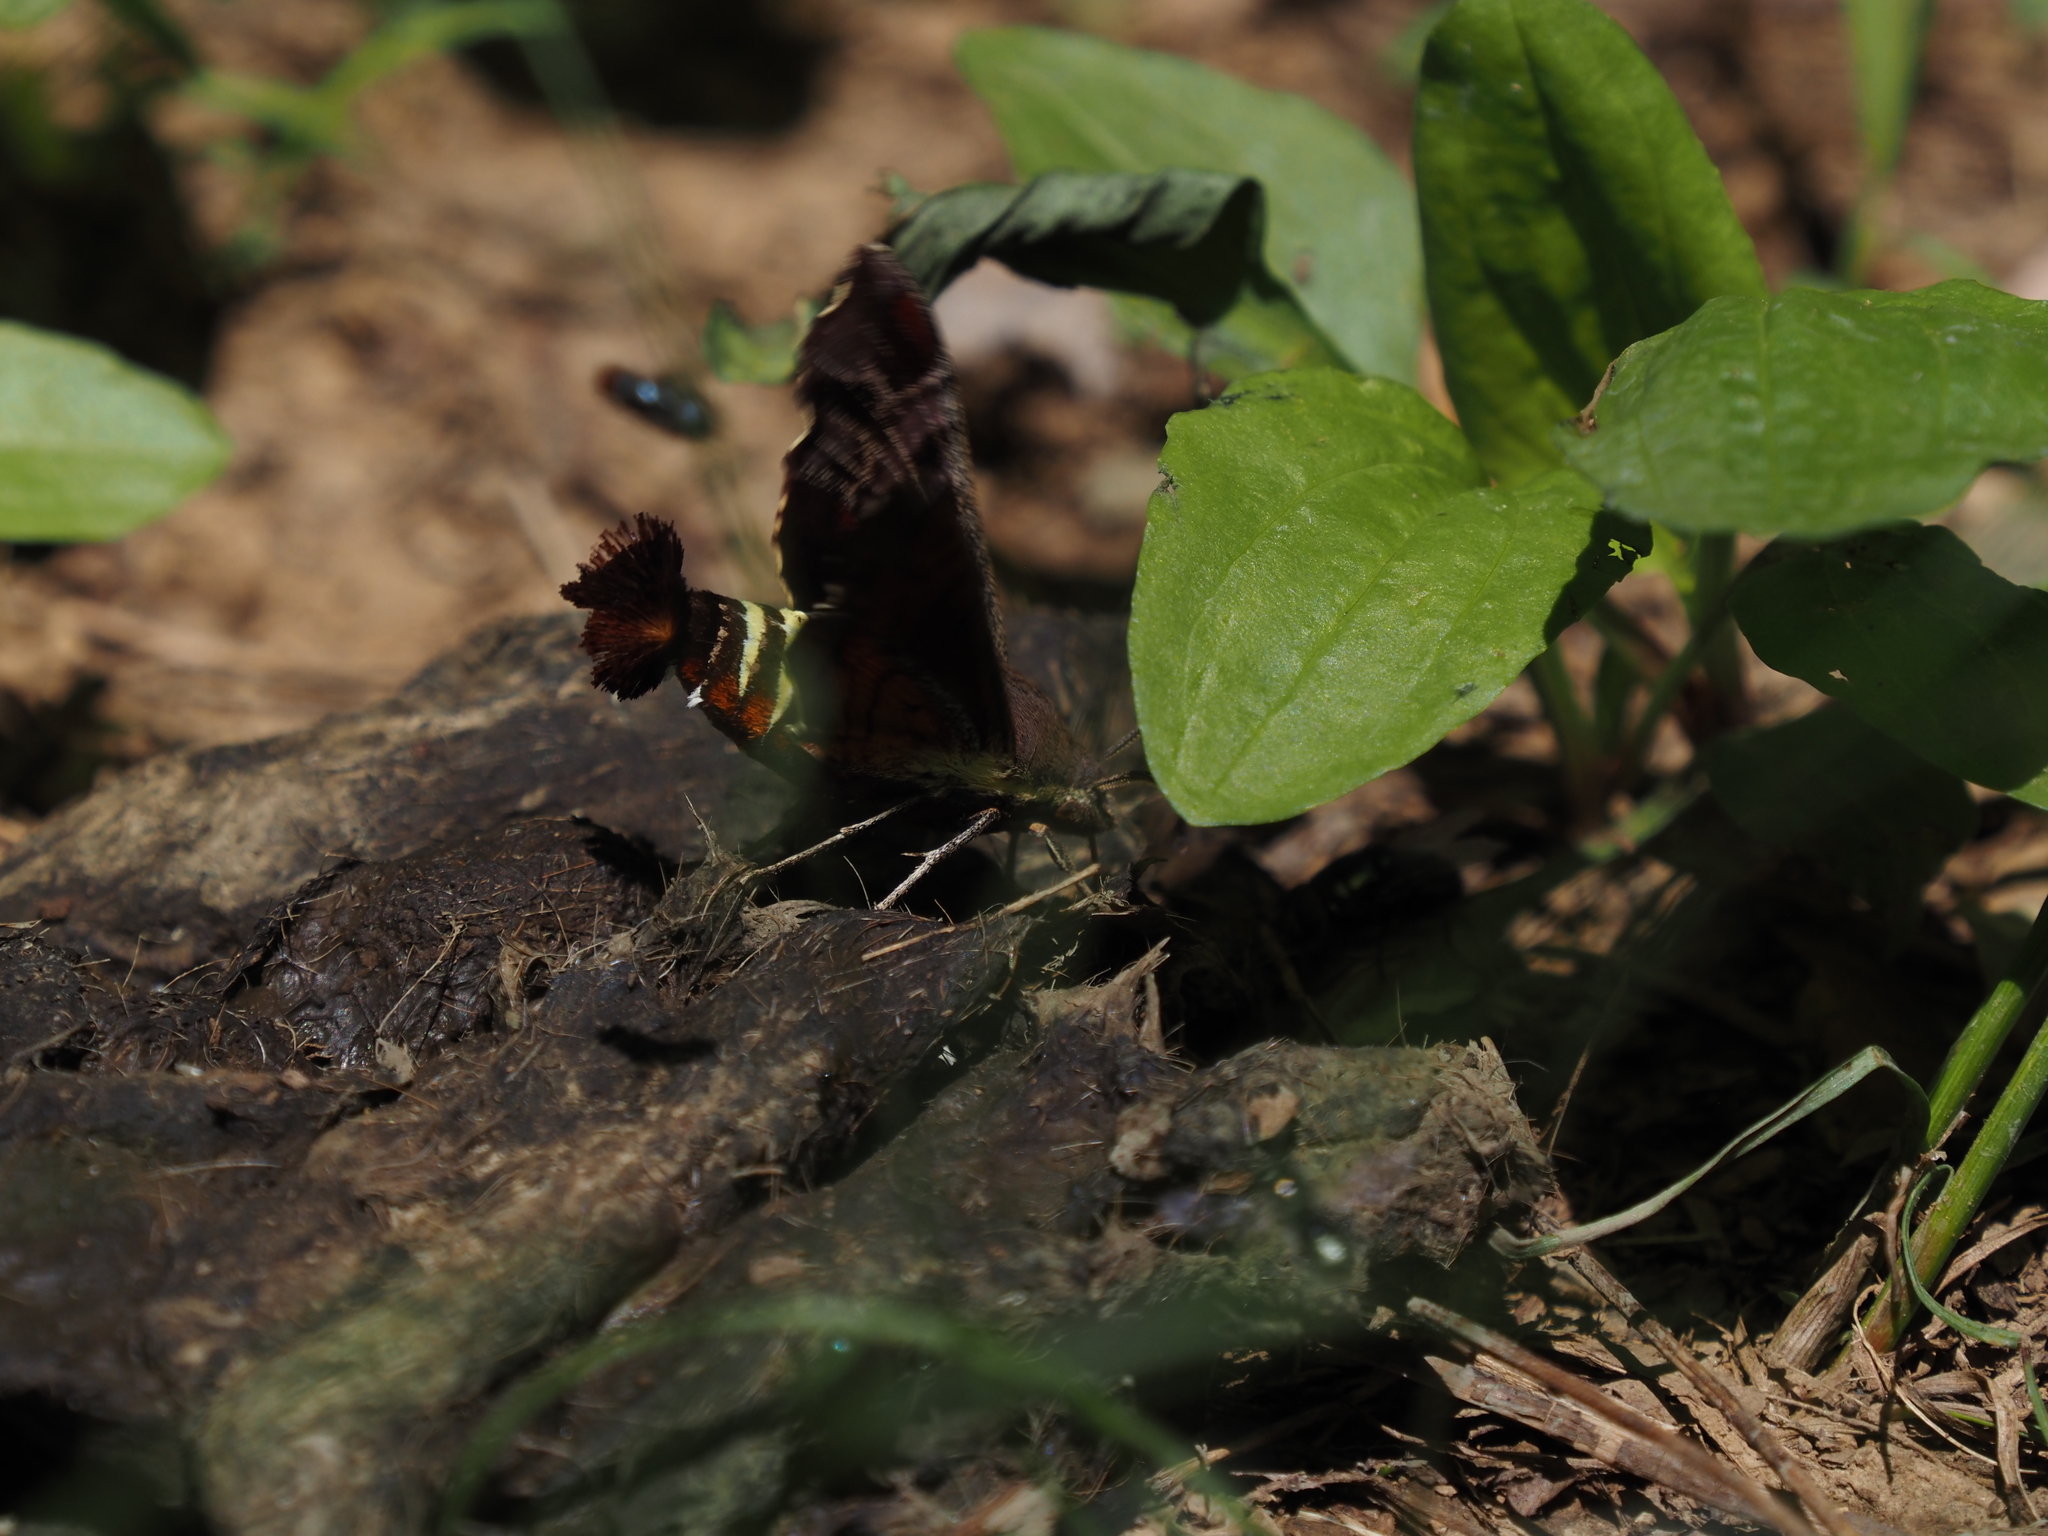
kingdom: Animalia
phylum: Arthropoda
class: Insecta
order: Lepidoptera
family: Sphingidae
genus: Amphion
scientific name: Amphion floridensis
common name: Nessus sphinx
